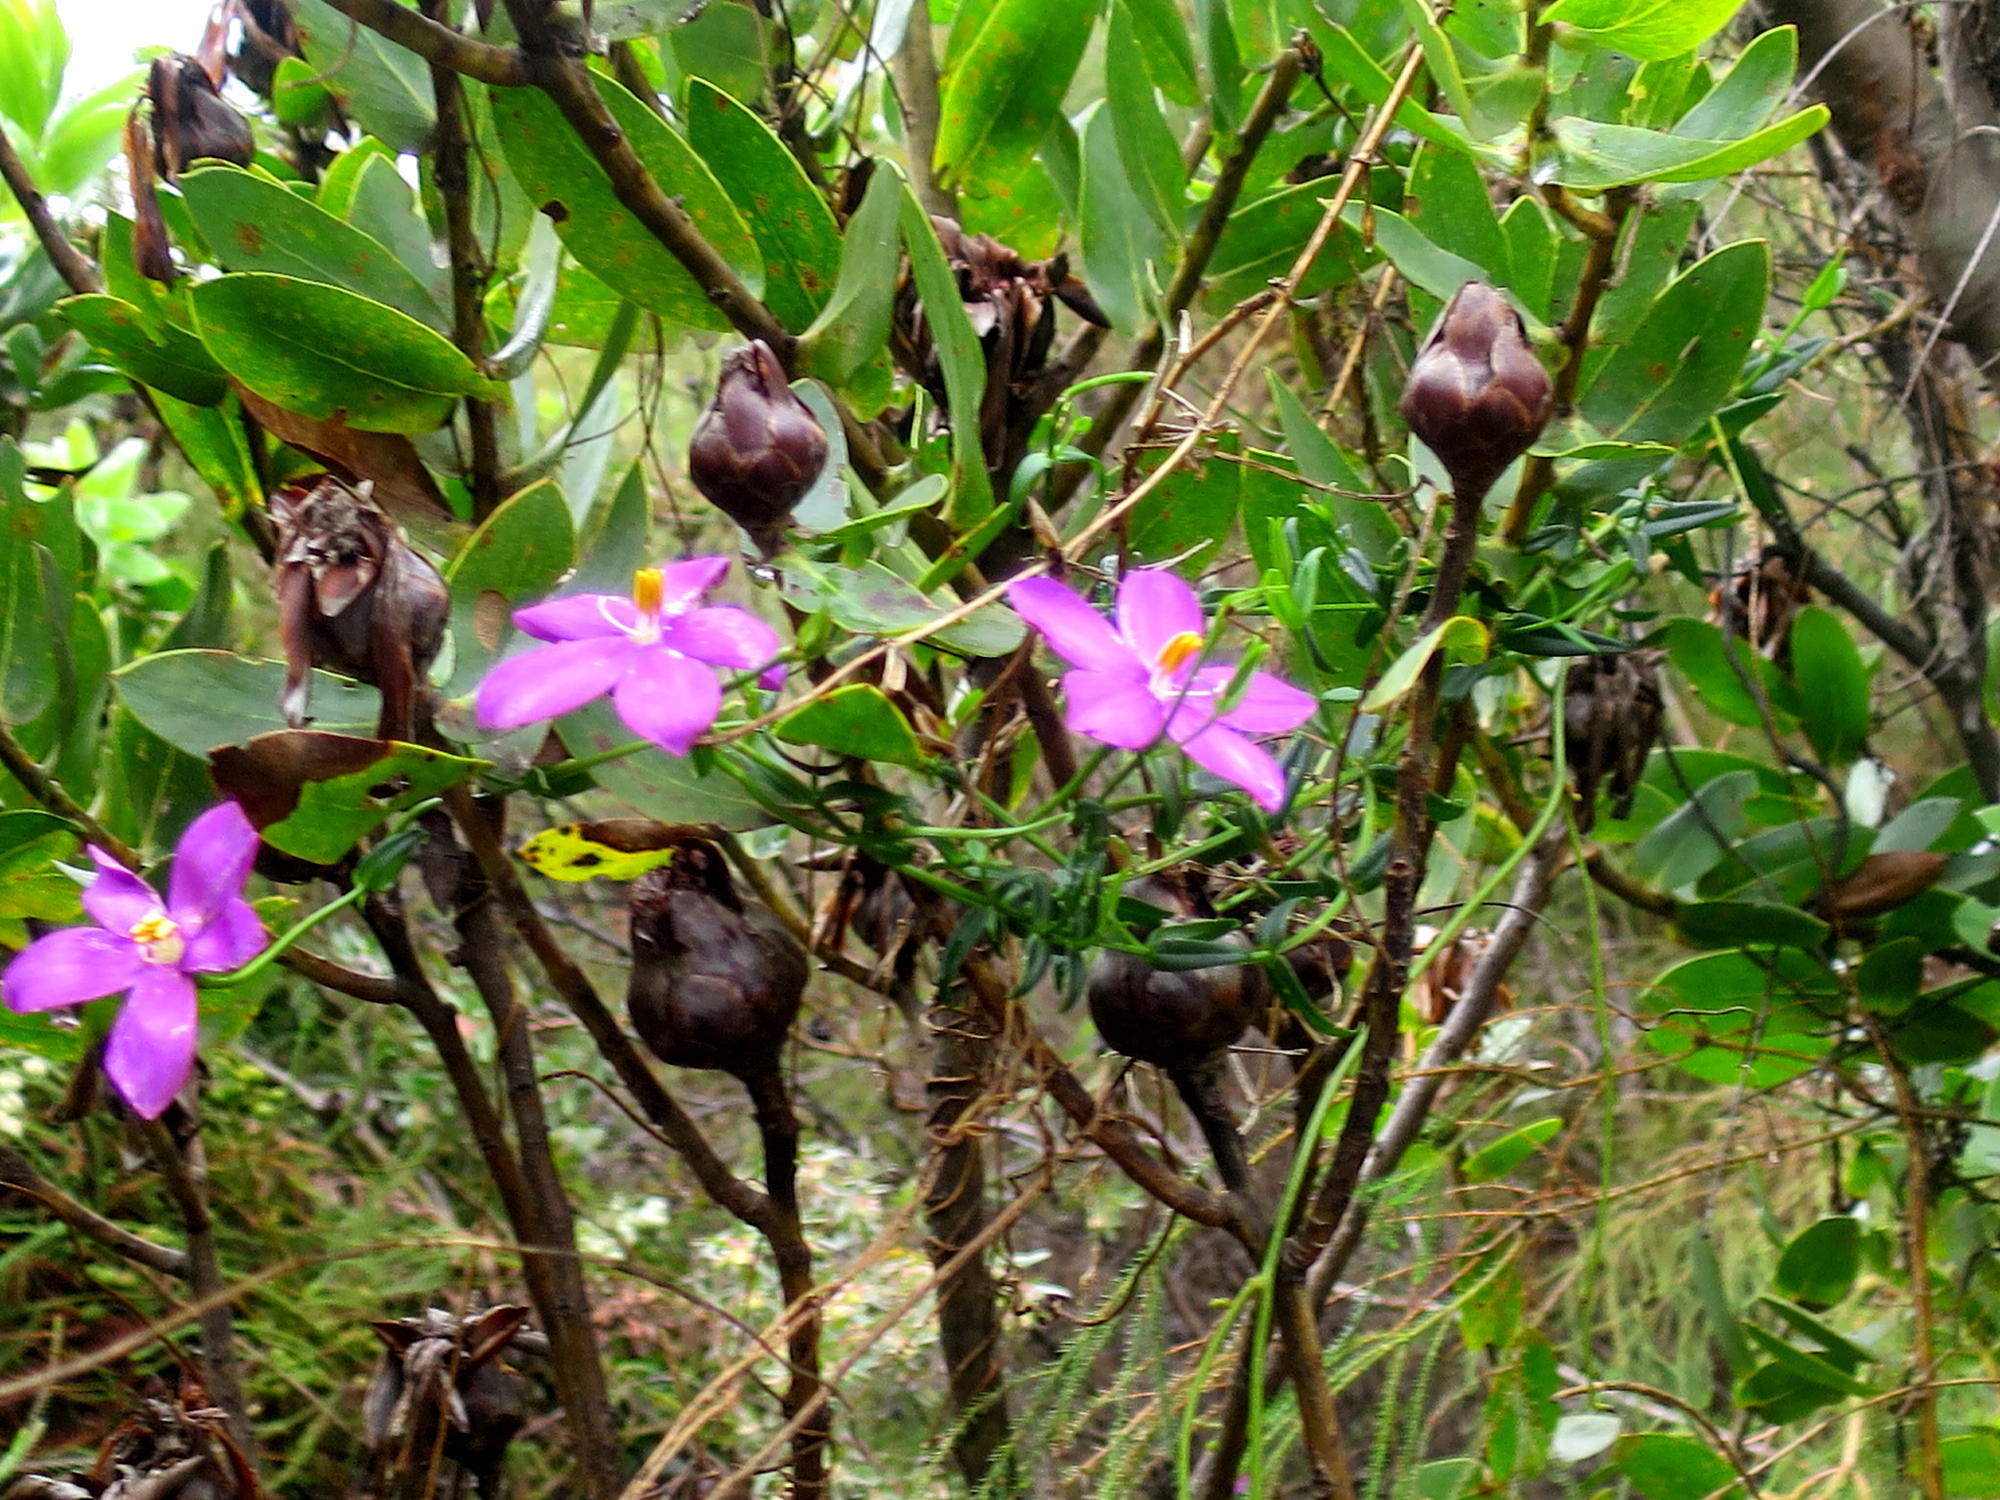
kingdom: Plantae
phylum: Tracheophyta
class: Magnoliopsida
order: Gentianales
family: Gentianaceae
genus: Chironia
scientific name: Chironia melampyrifolia
